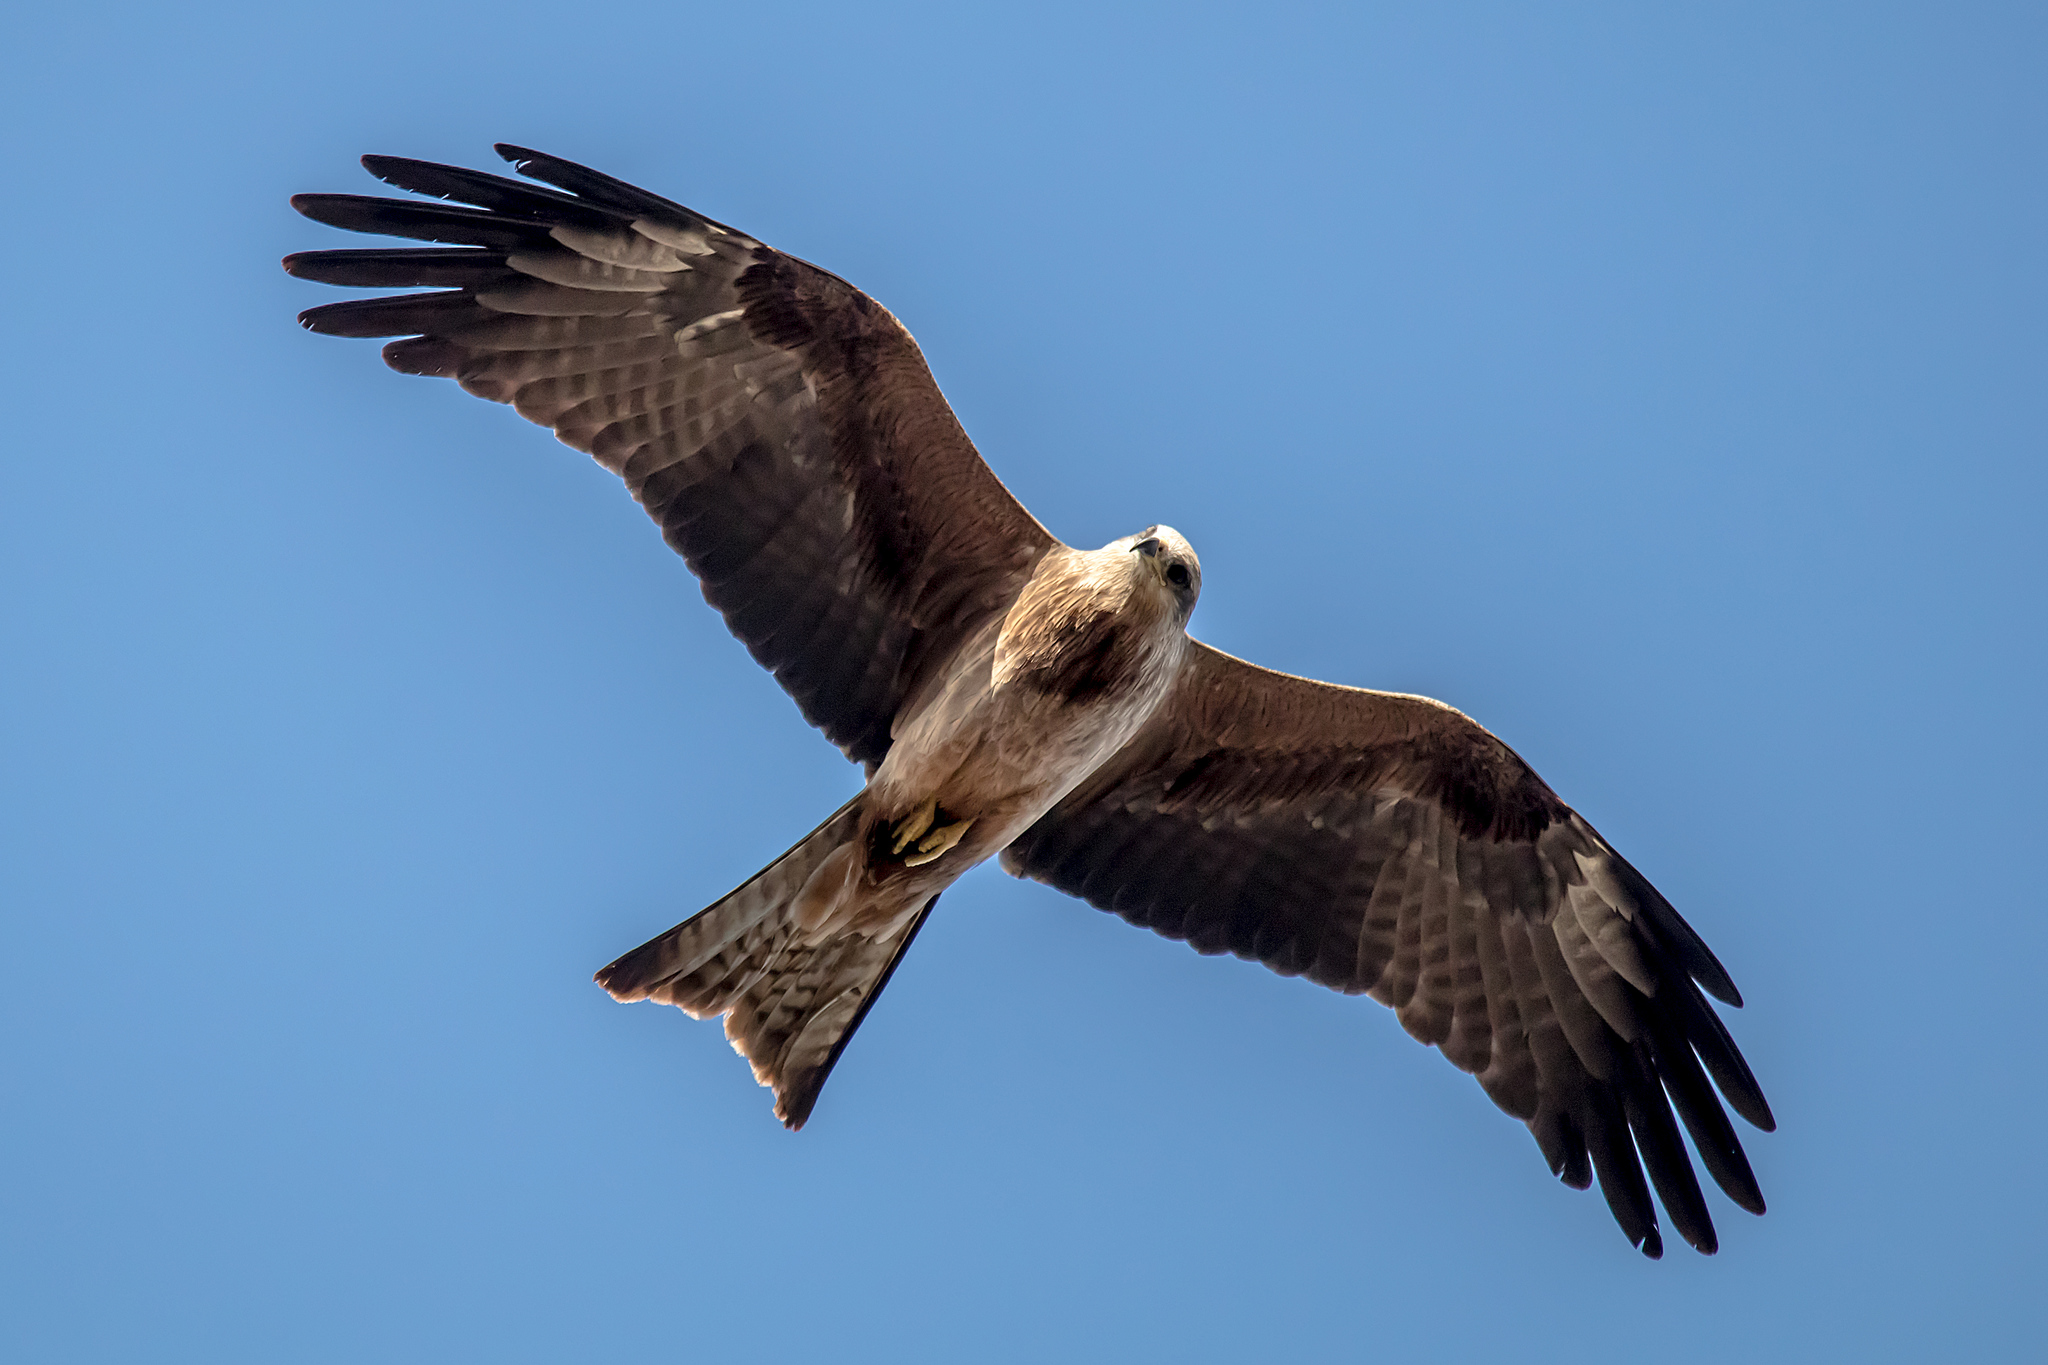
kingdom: Animalia
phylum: Chordata
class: Aves
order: Accipitriformes
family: Accipitridae
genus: Milvus
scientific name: Milvus migrans
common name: Black kite
